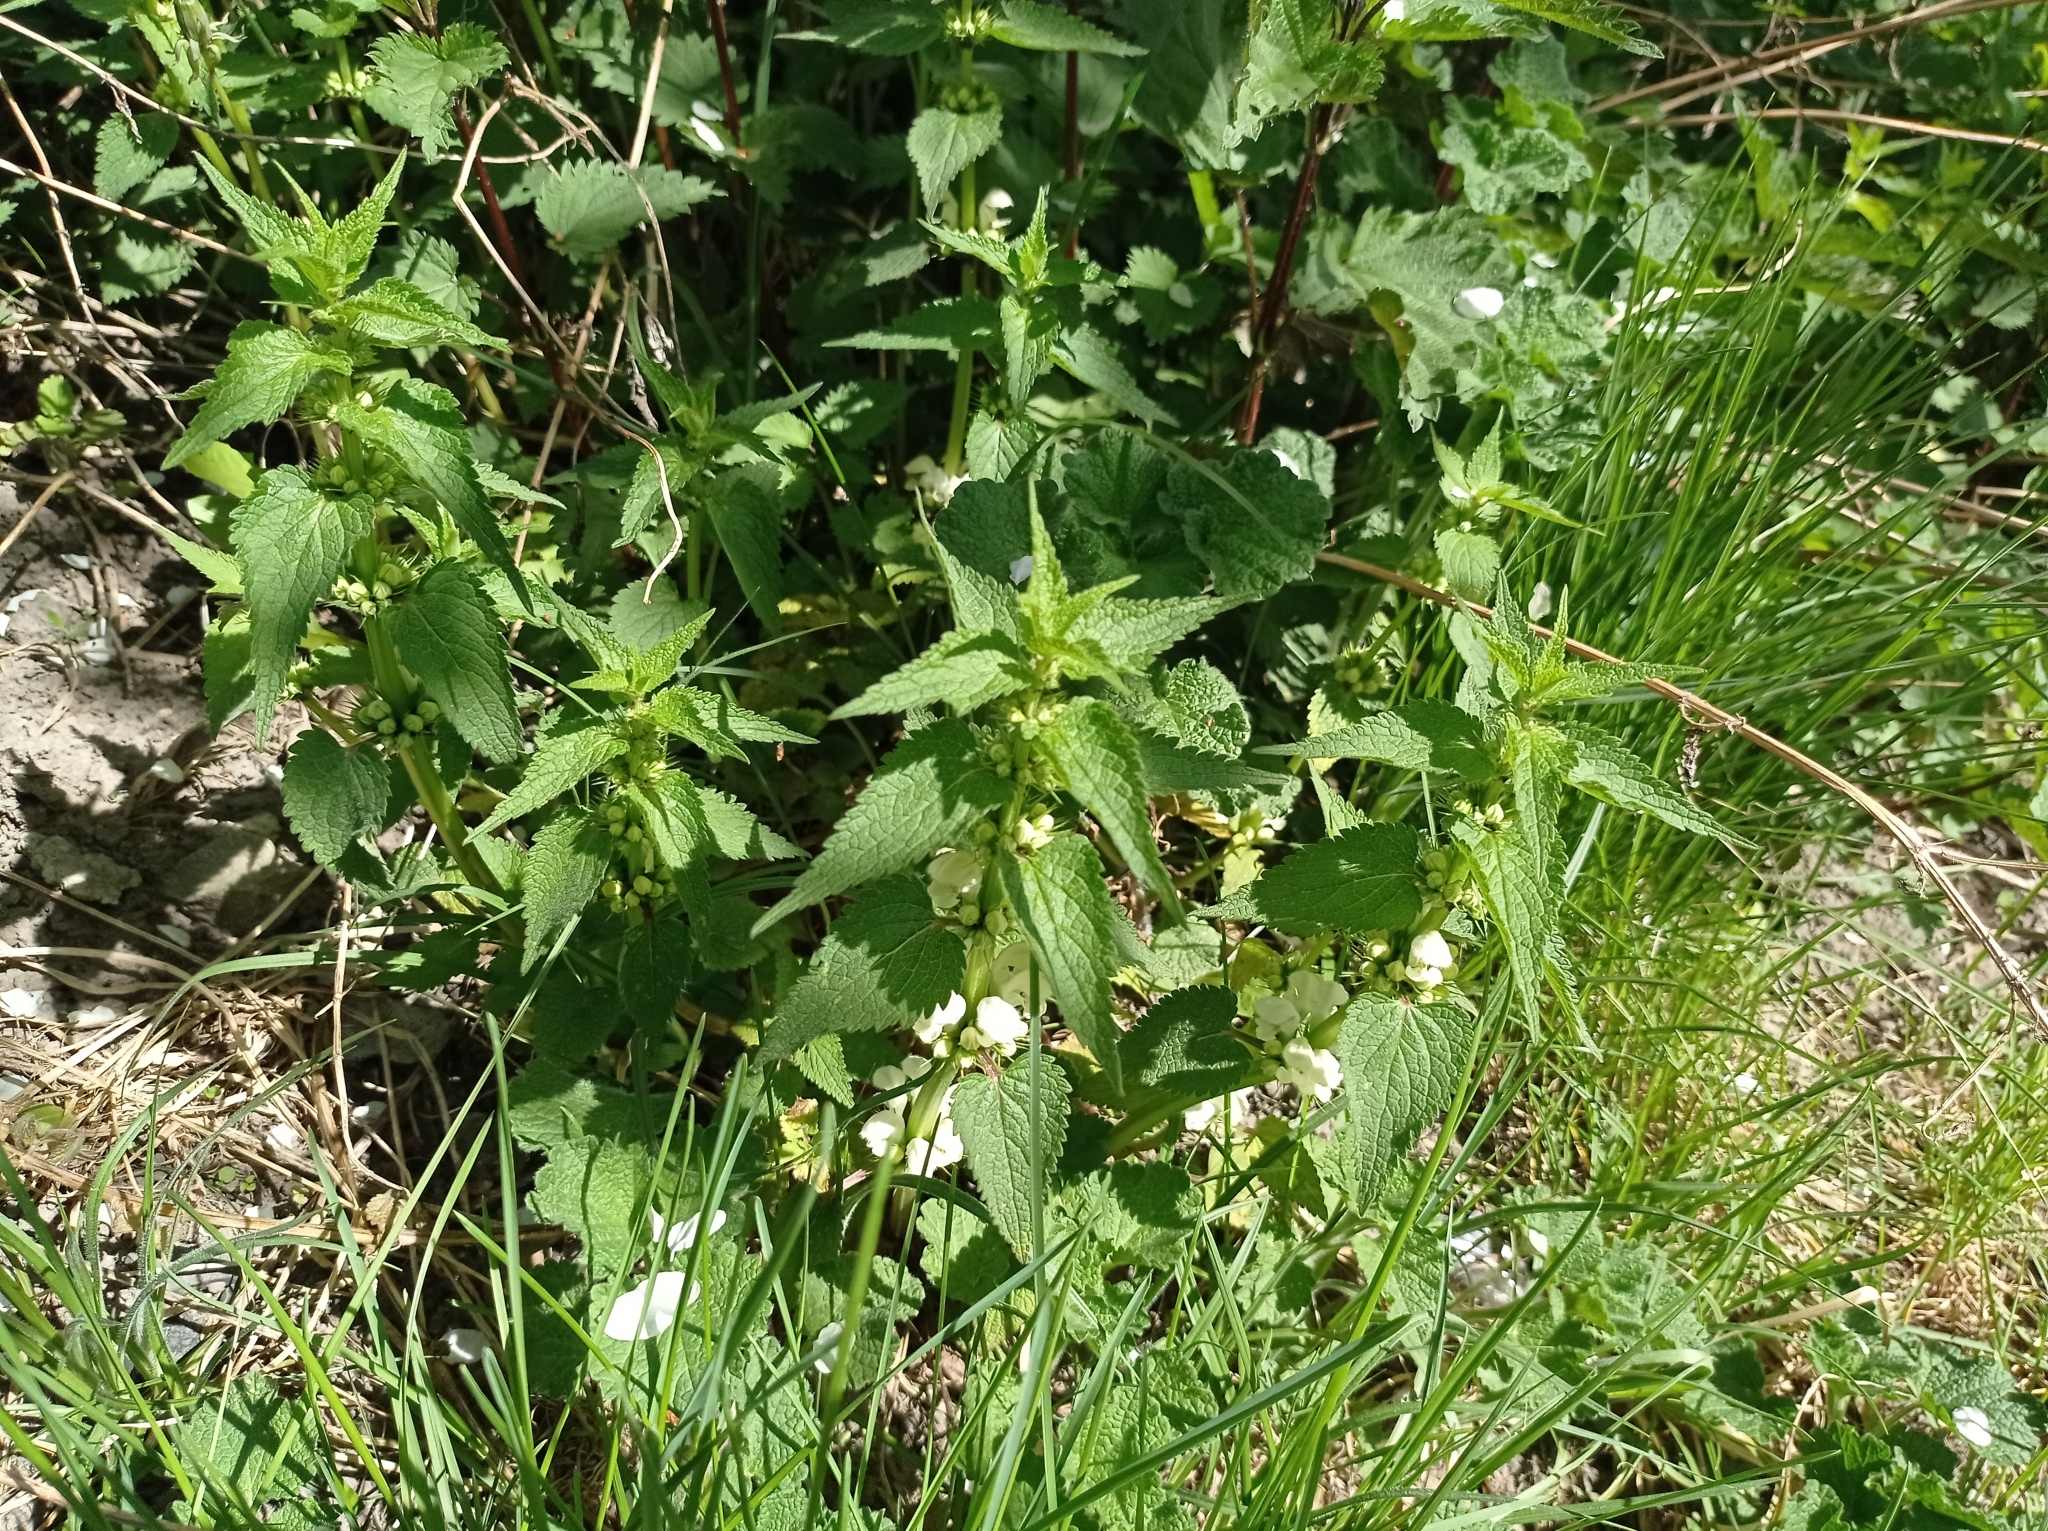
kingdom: Plantae
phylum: Tracheophyta
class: Magnoliopsida
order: Lamiales
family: Lamiaceae
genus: Lamium
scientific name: Lamium album
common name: White dead-nettle
